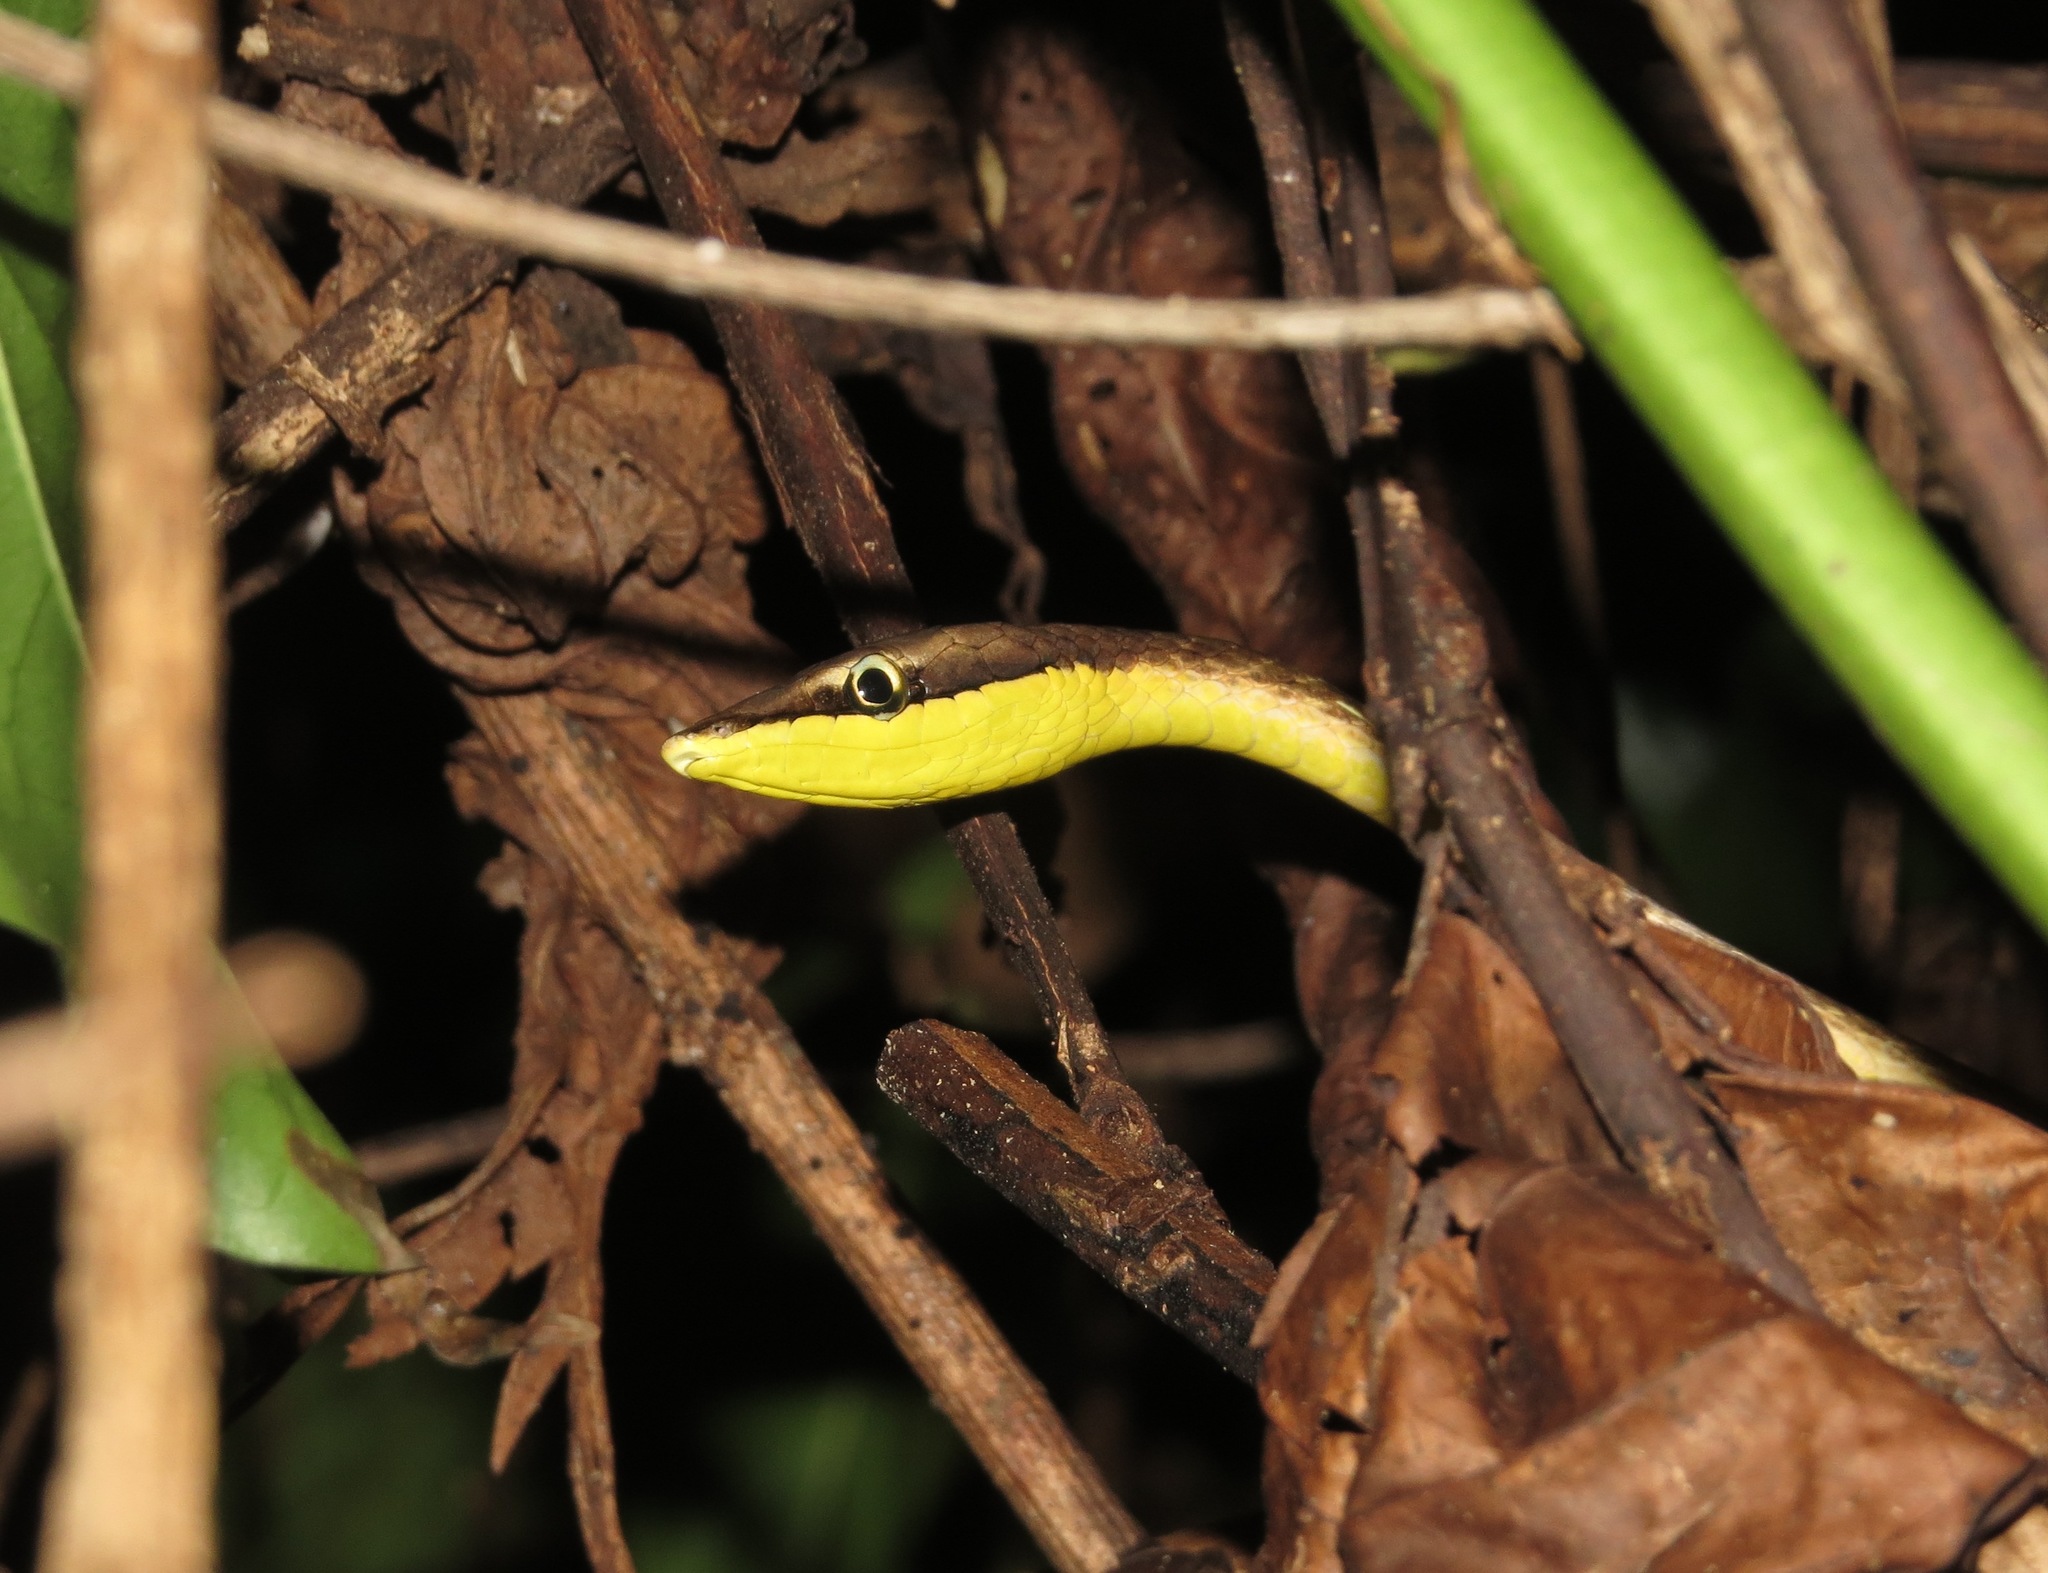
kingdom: Animalia
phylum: Chordata
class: Squamata
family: Colubridae
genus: Oxybelis
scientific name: Oxybelis rutherfordi
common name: Rutherford’s vine snake
